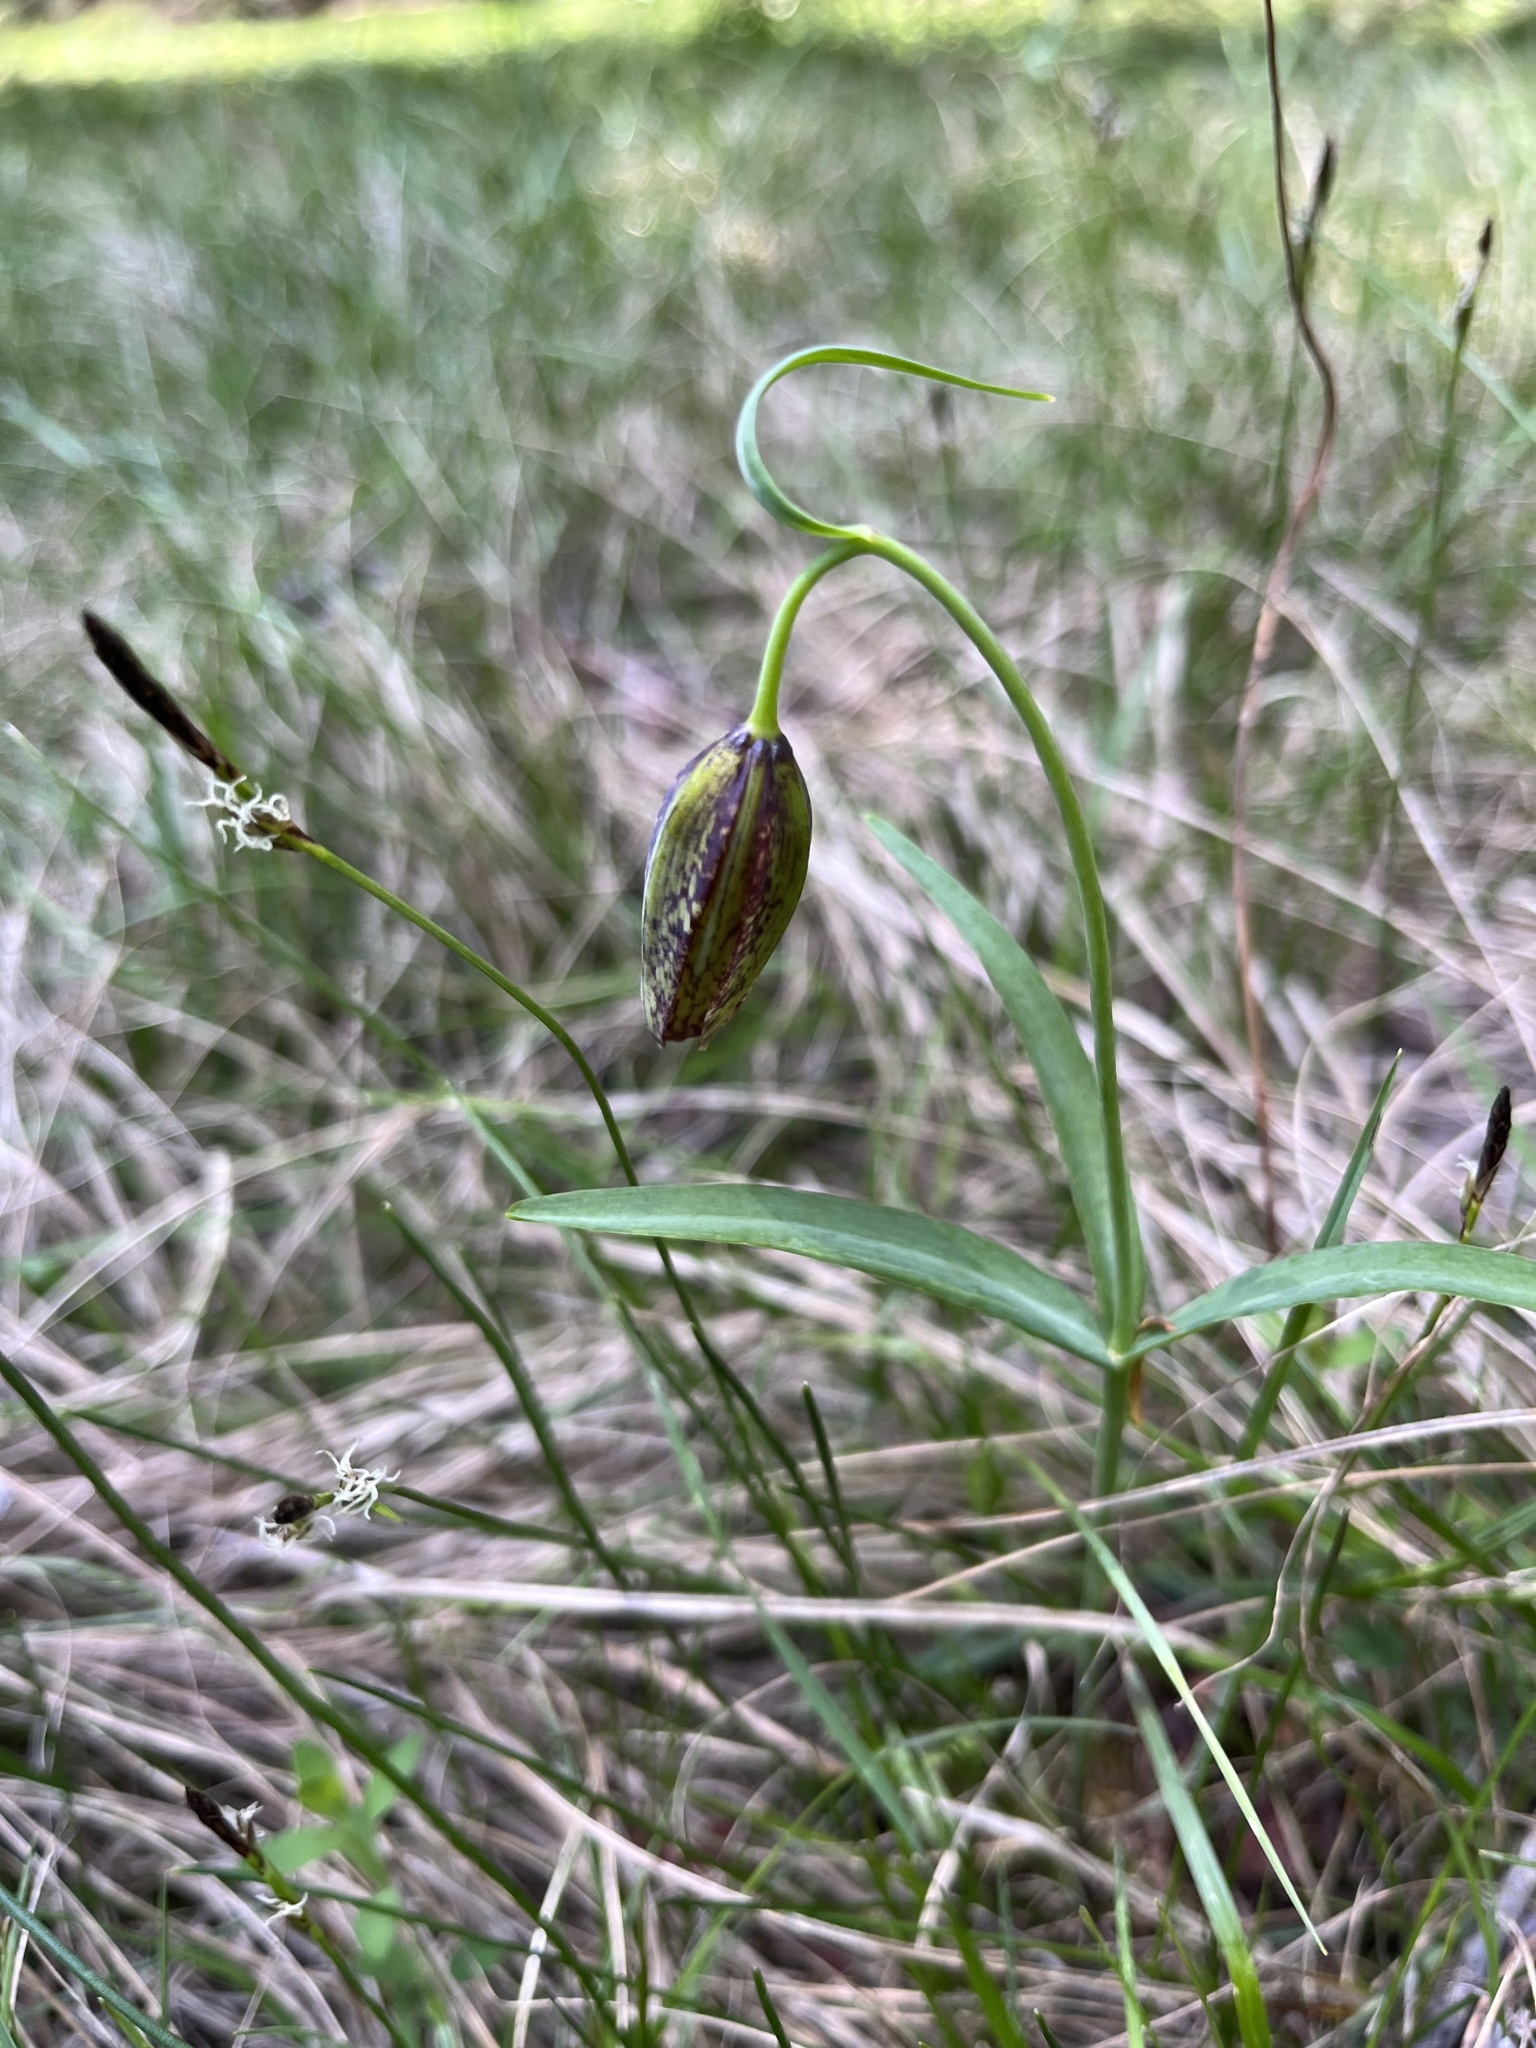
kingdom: Plantae
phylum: Tracheophyta
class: Liliopsida
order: Liliales
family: Liliaceae
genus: Fritillaria
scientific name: Fritillaria affinis
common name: Ojai fritillary
